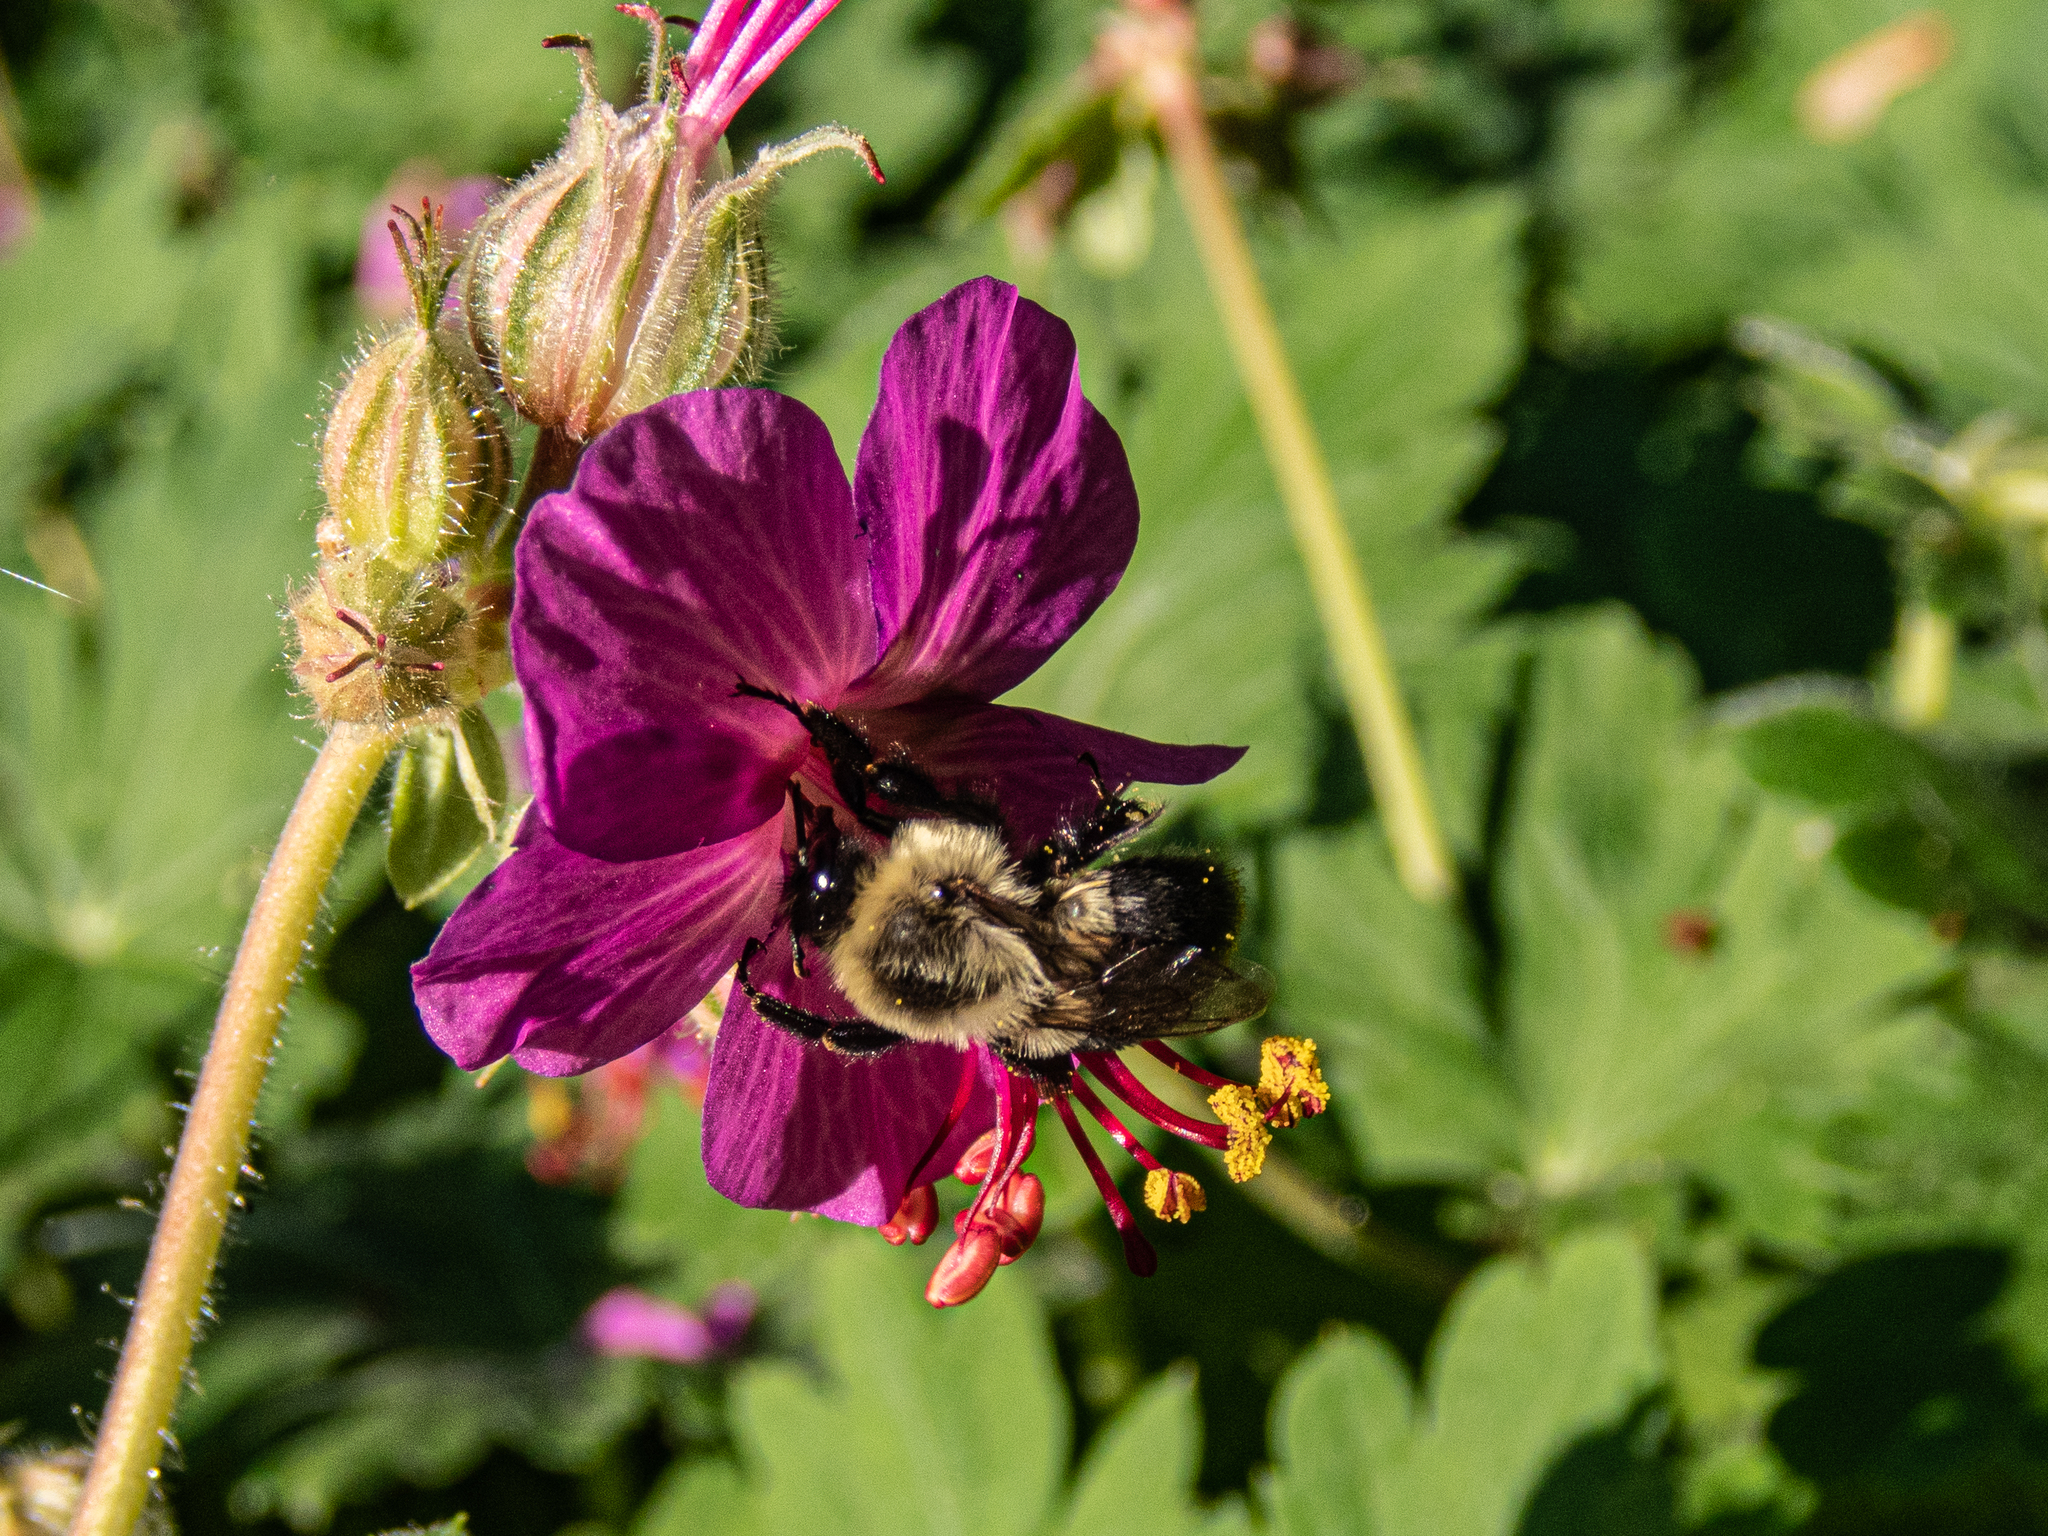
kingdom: Animalia
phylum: Arthropoda
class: Insecta
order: Hymenoptera
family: Apidae
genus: Bombus
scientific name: Bombus impatiens
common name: Common eastern bumble bee
